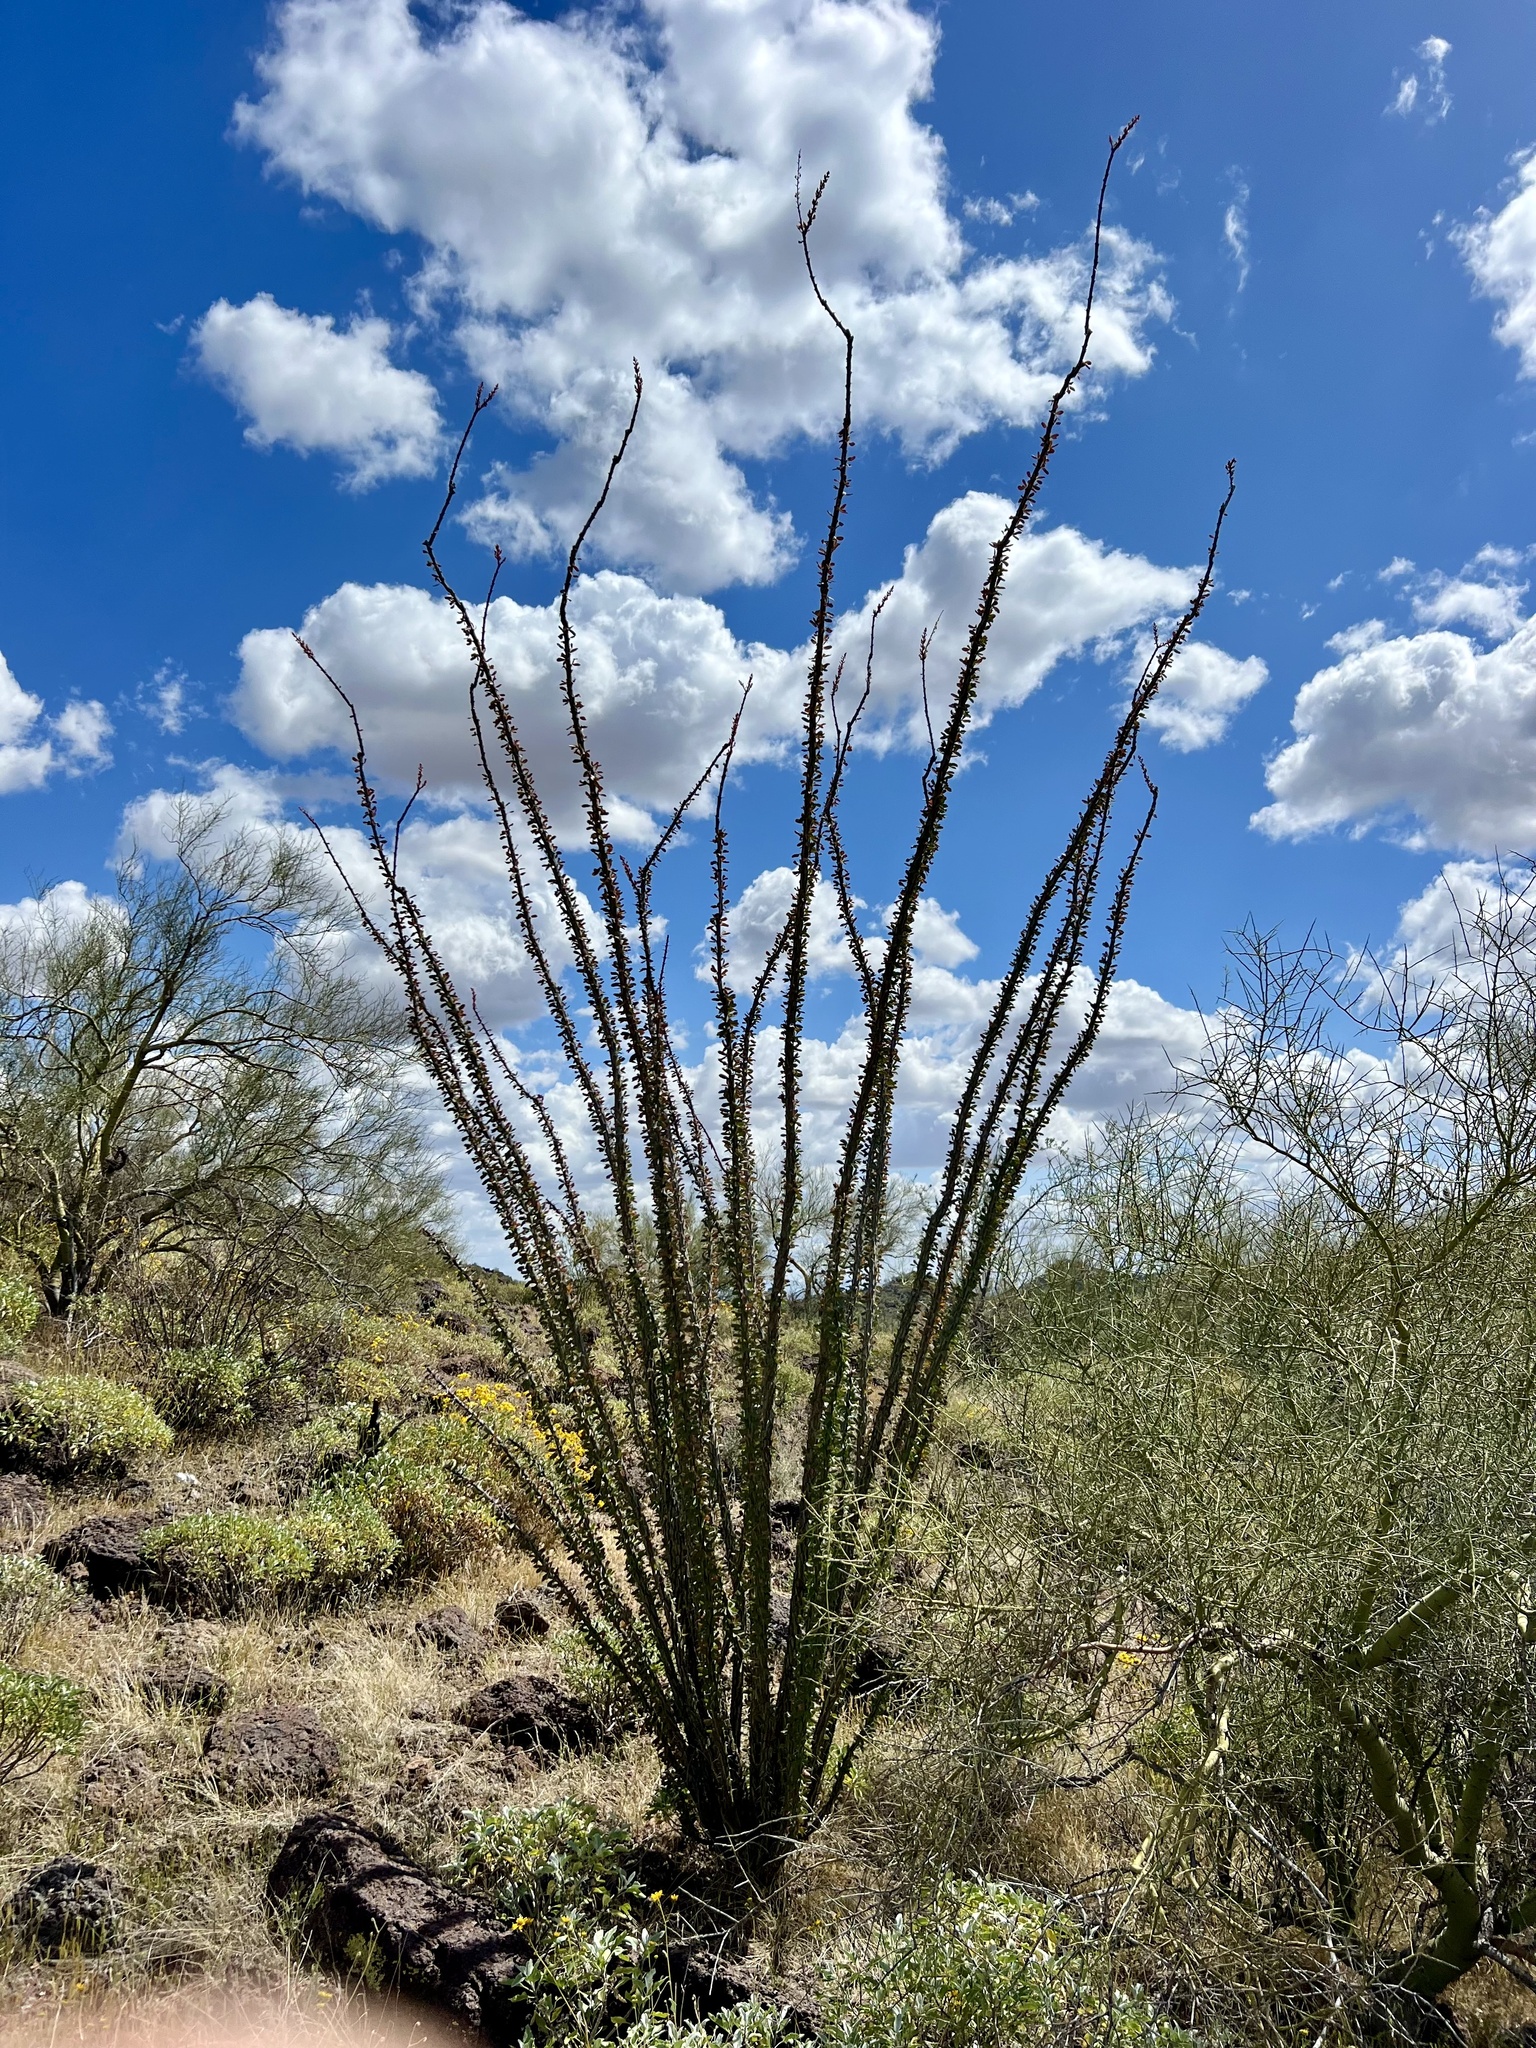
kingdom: Plantae
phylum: Tracheophyta
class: Magnoliopsida
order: Ericales
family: Fouquieriaceae
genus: Fouquieria
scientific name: Fouquieria splendens
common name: Vine-cactus
